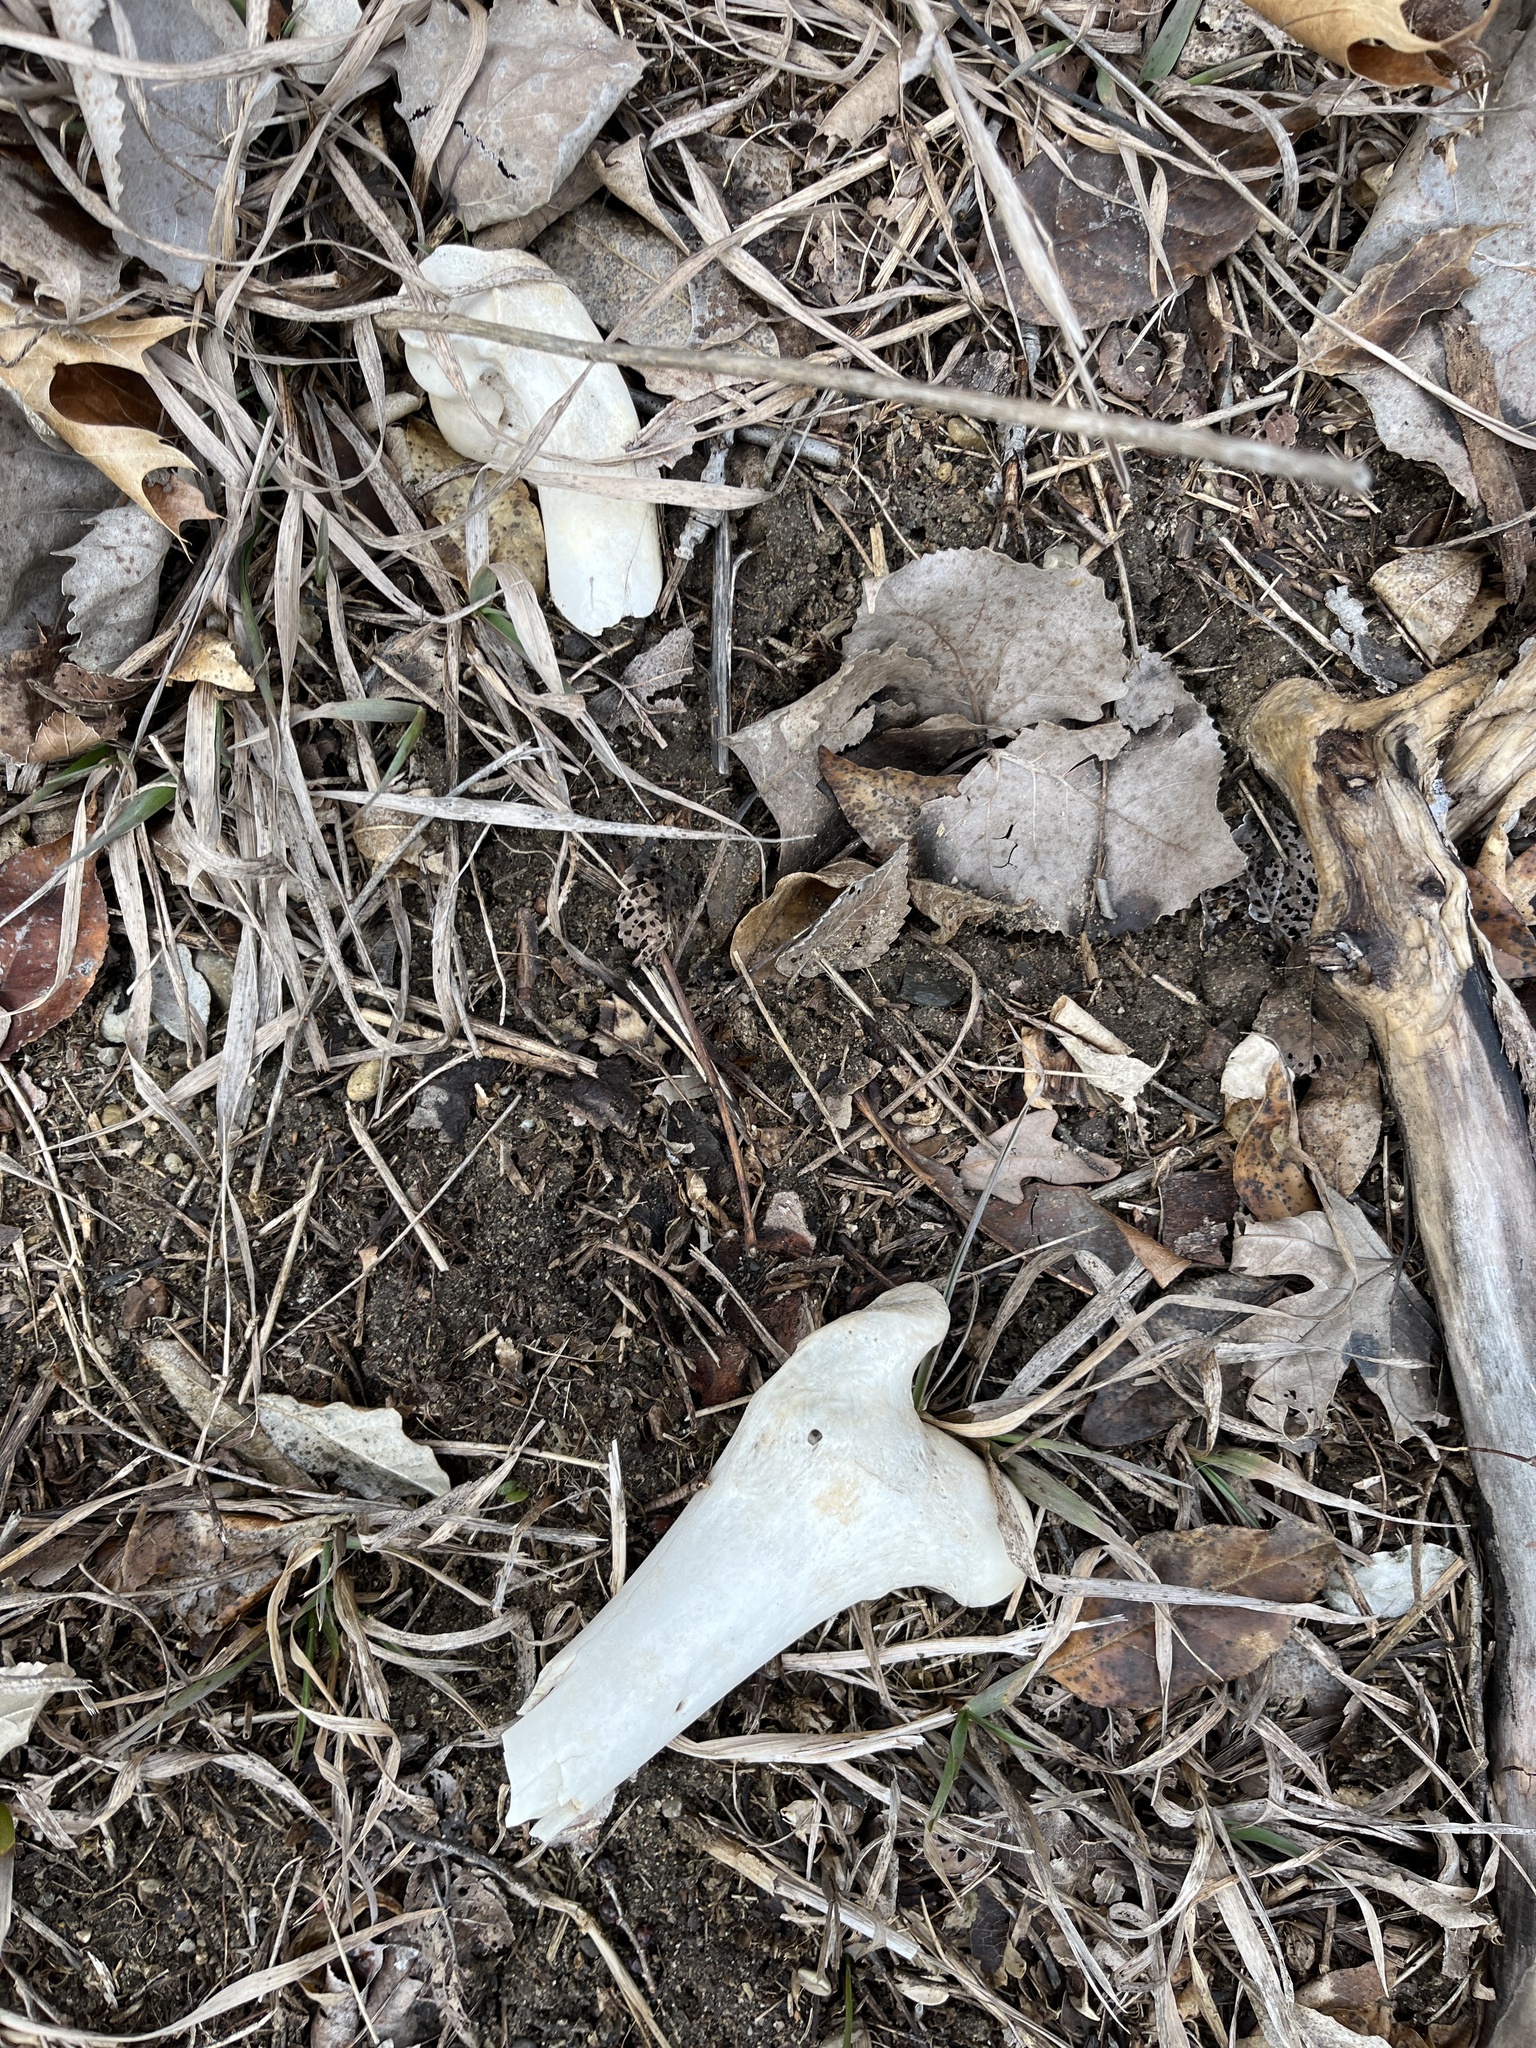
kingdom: Animalia
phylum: Chordata
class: Mammalia
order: Artiodactyla
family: Cervidae
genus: Odocoileus
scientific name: Odocoileus virginianus
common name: White-tailed deer
